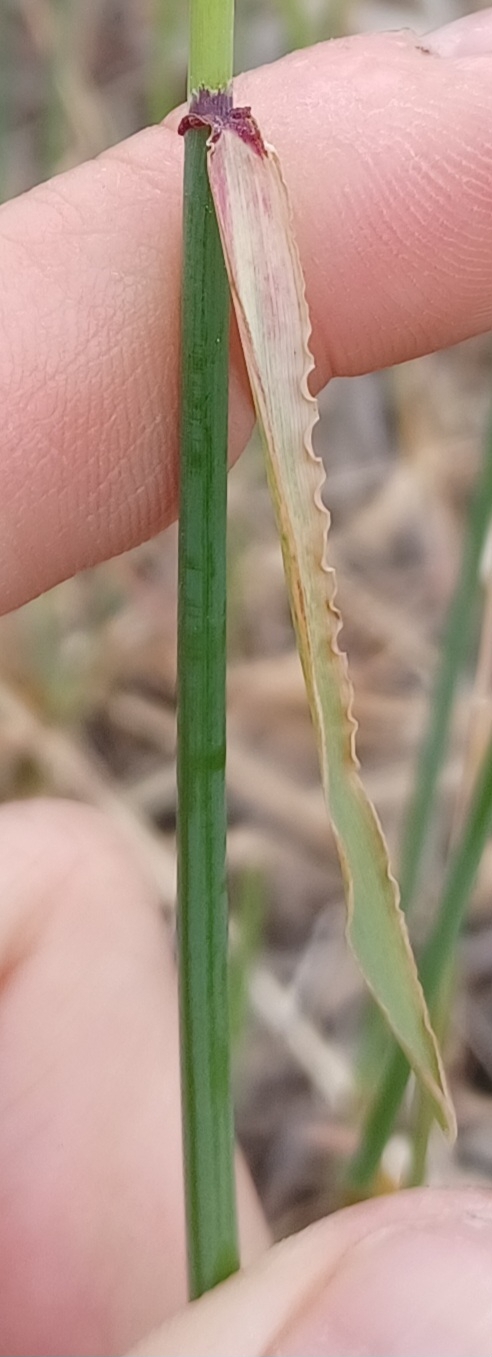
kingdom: Plantae
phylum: Tracheophyta
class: Liliopsida
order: Poales
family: Poaceae
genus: Ehrharta
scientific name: Ehrharta calycina
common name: Perennial veldtgrass
